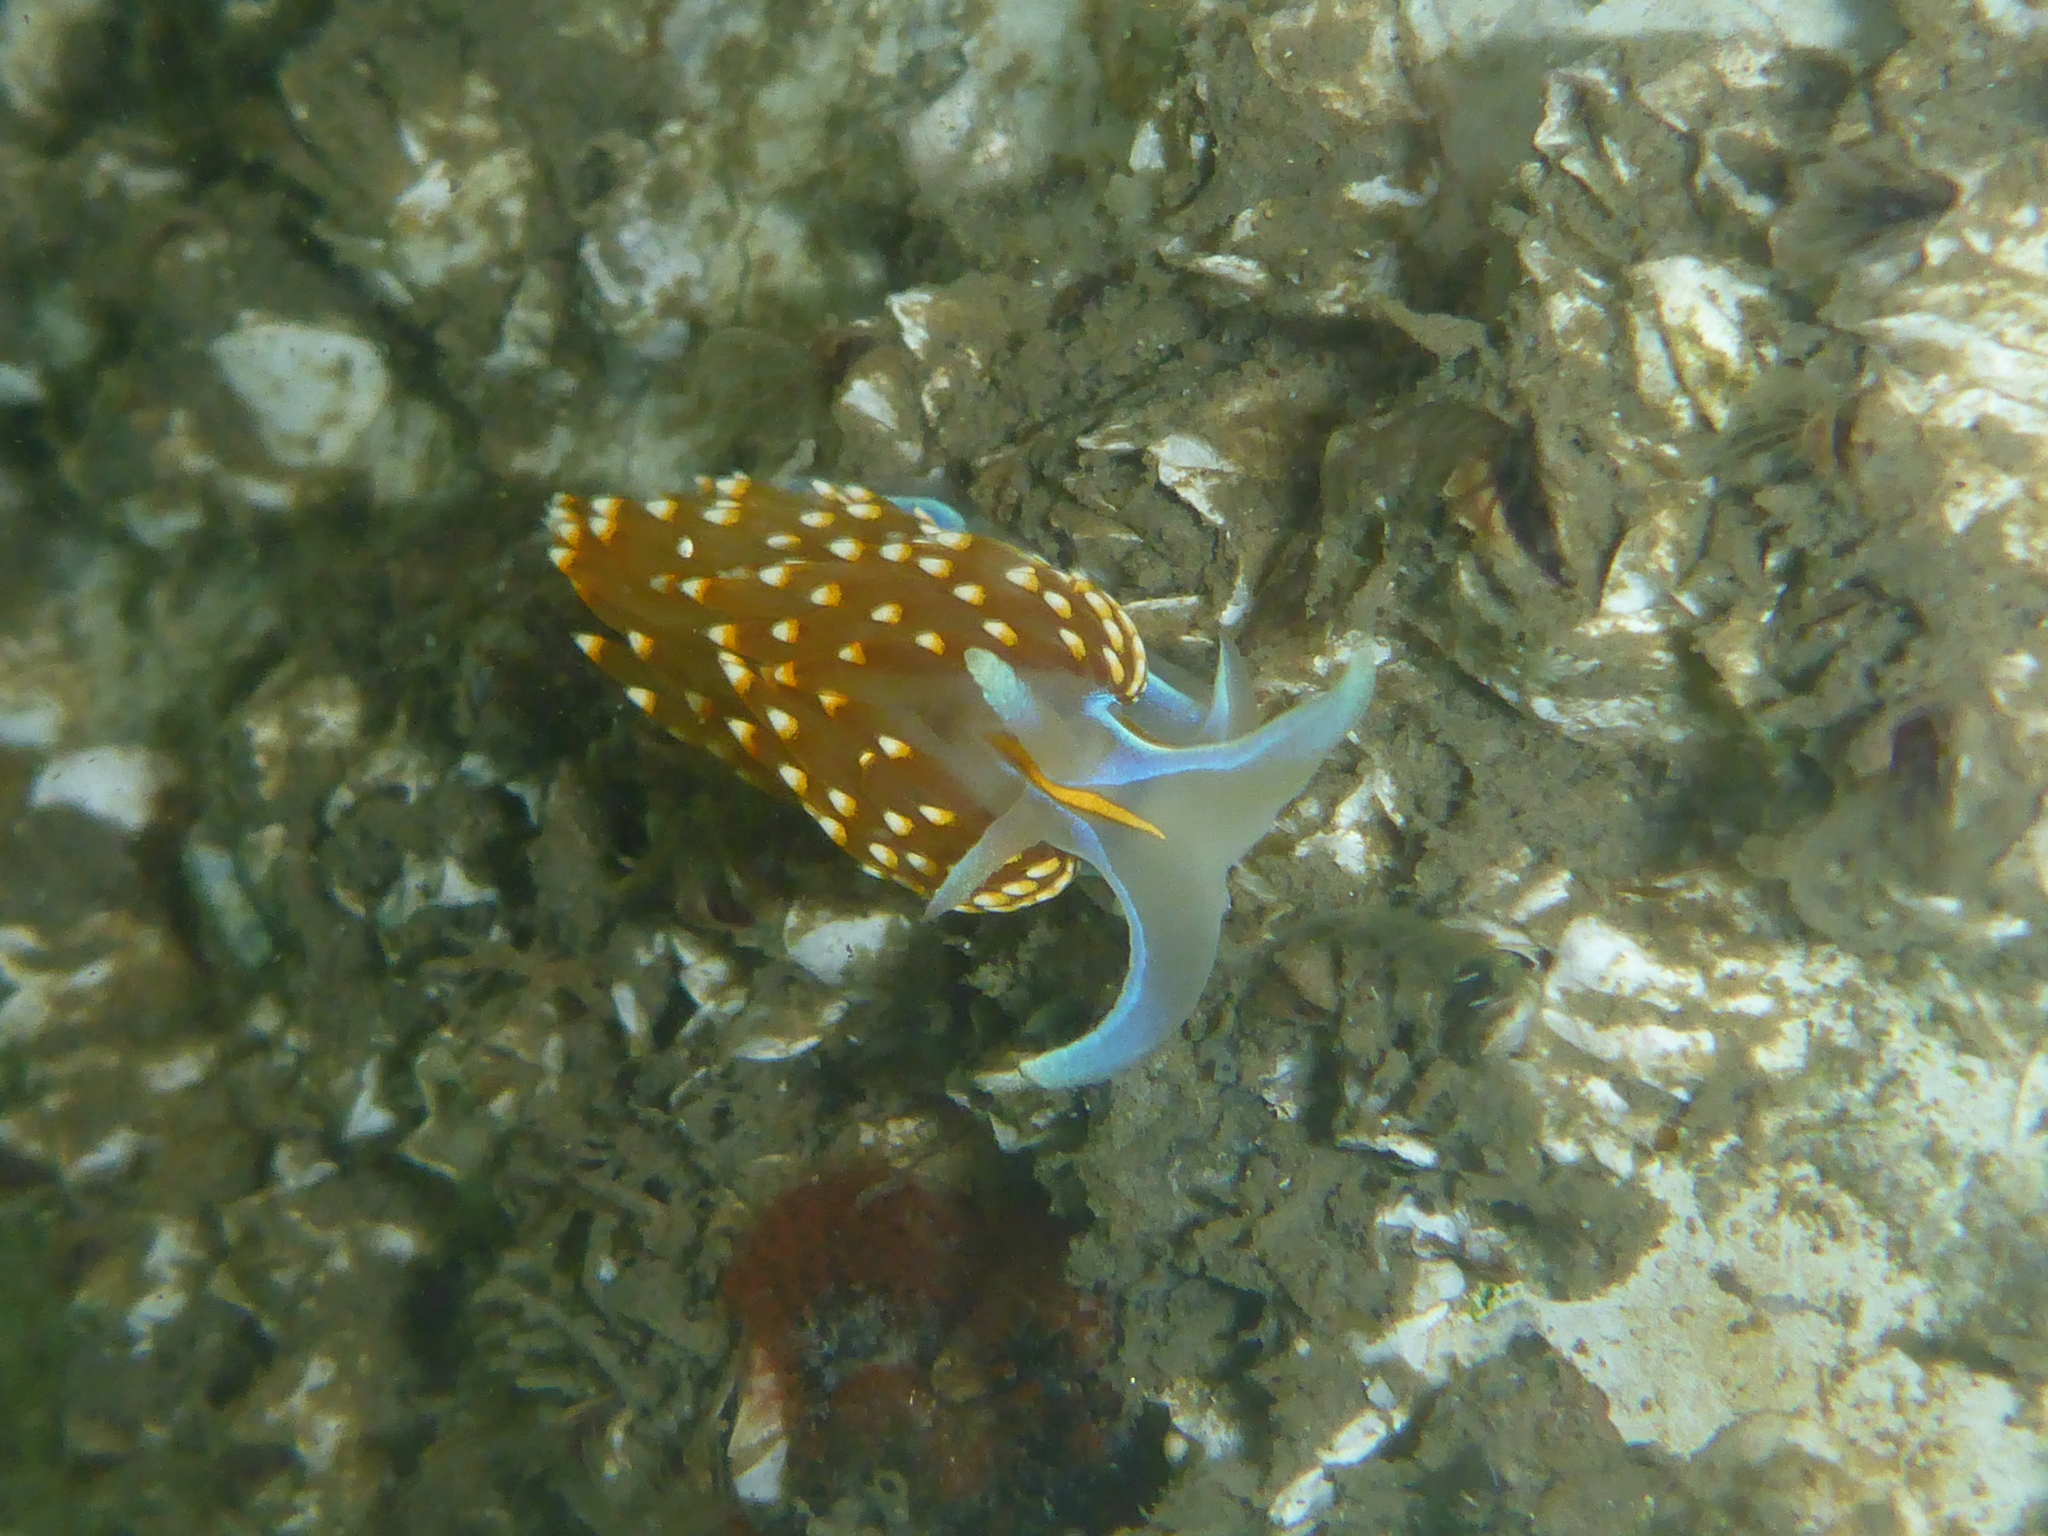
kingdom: Animalia
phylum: Mollusca
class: Gastropoda
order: Nudibranchia
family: Myrrhinidae
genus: Hermissenda
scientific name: Hermissenda opalescens
